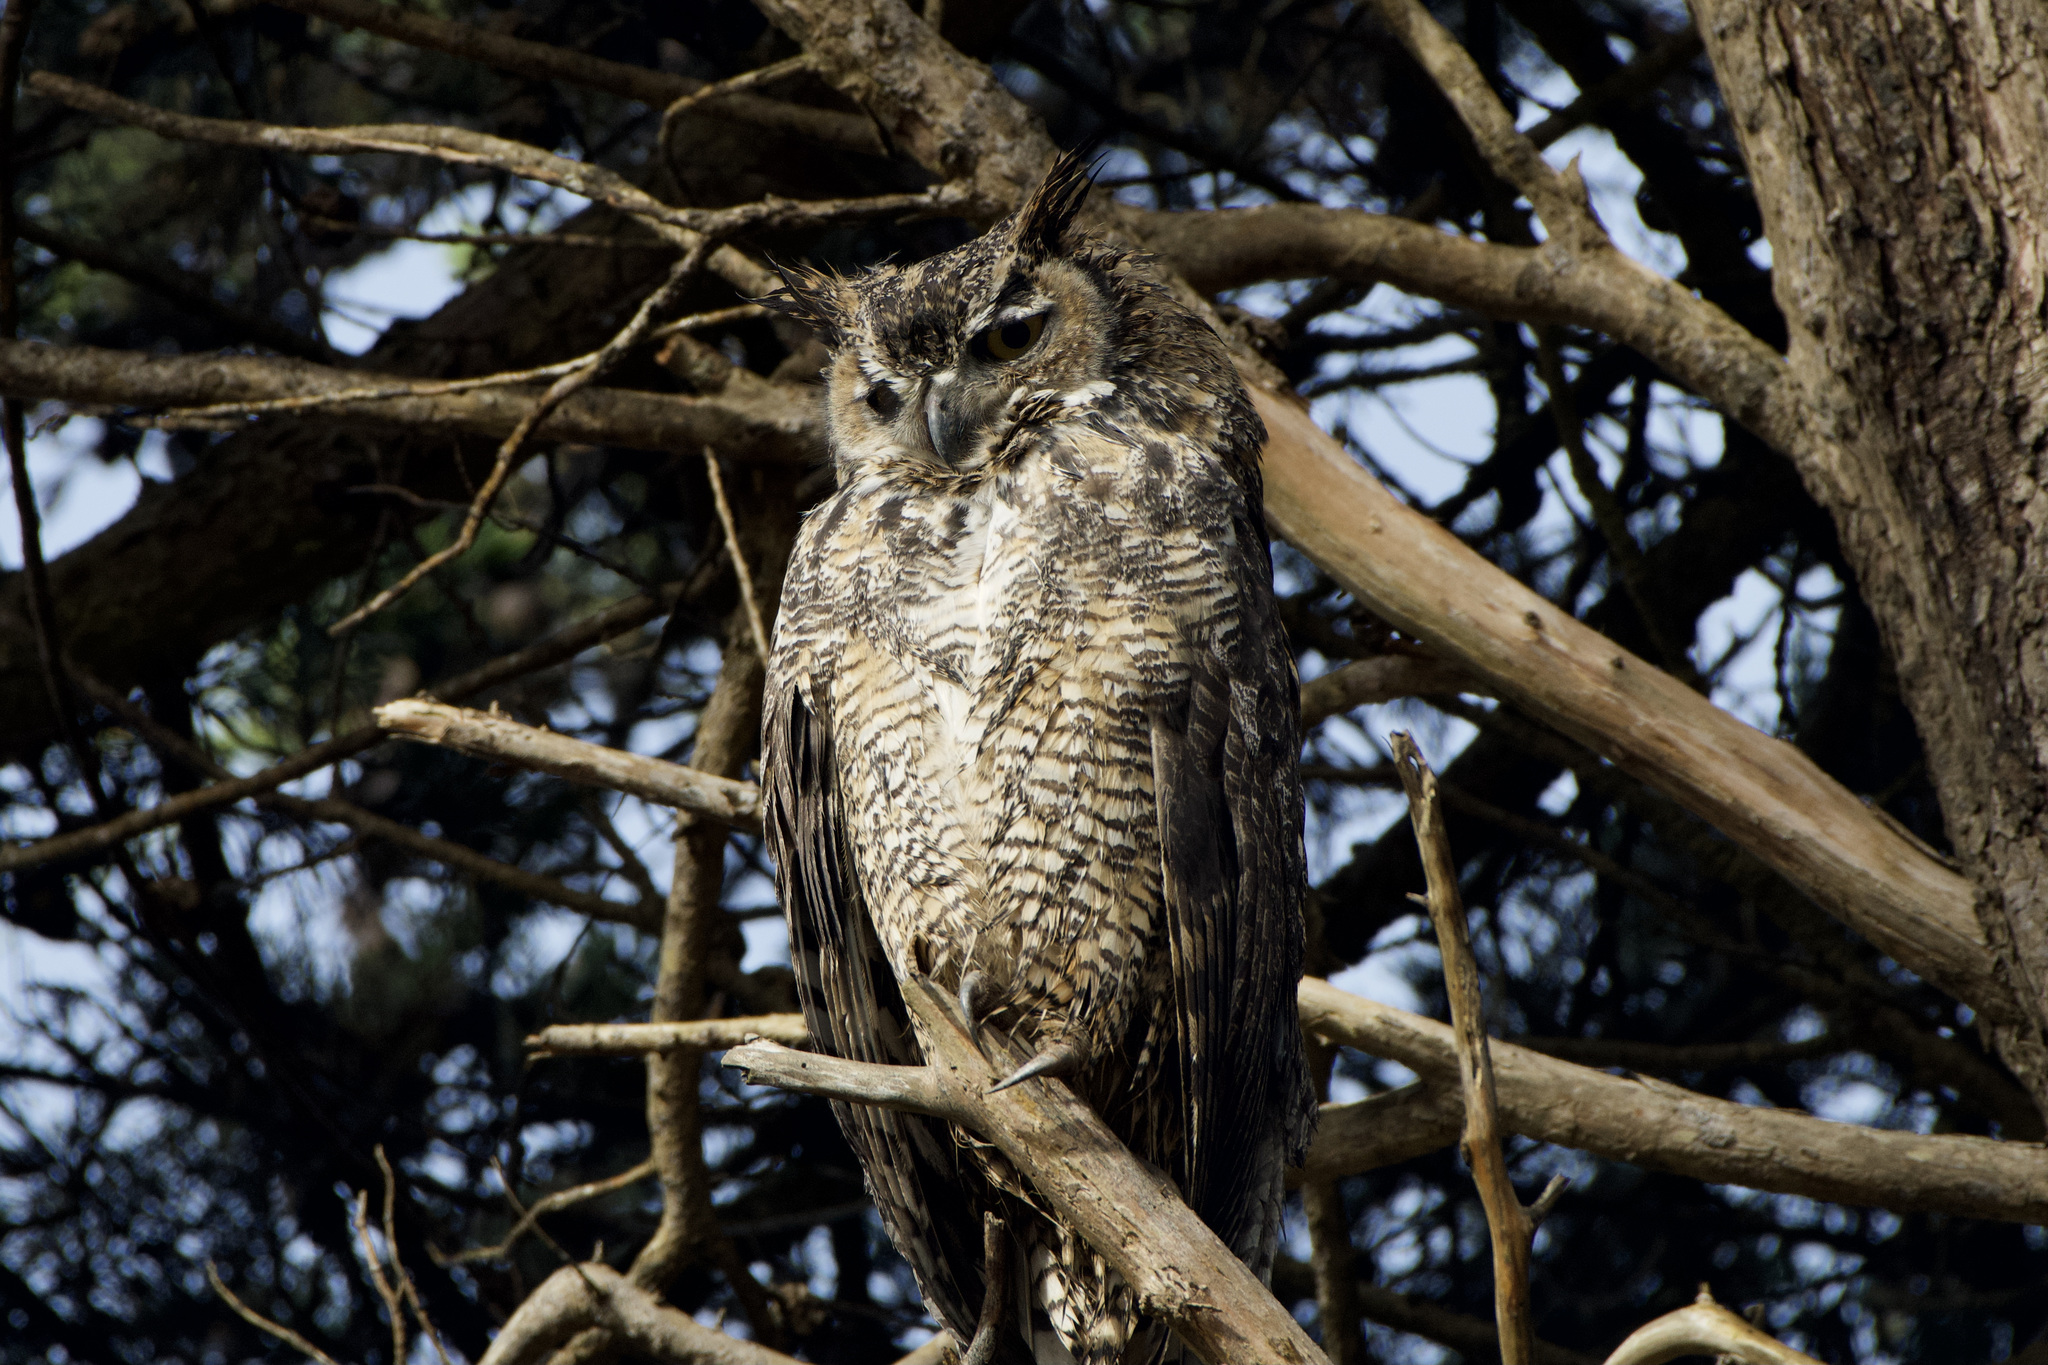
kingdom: Animalia
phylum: Chordata
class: Aves
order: Strigiformes
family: Strigidae
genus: Bubo
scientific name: Bubo virginianus
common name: Great horned owl
